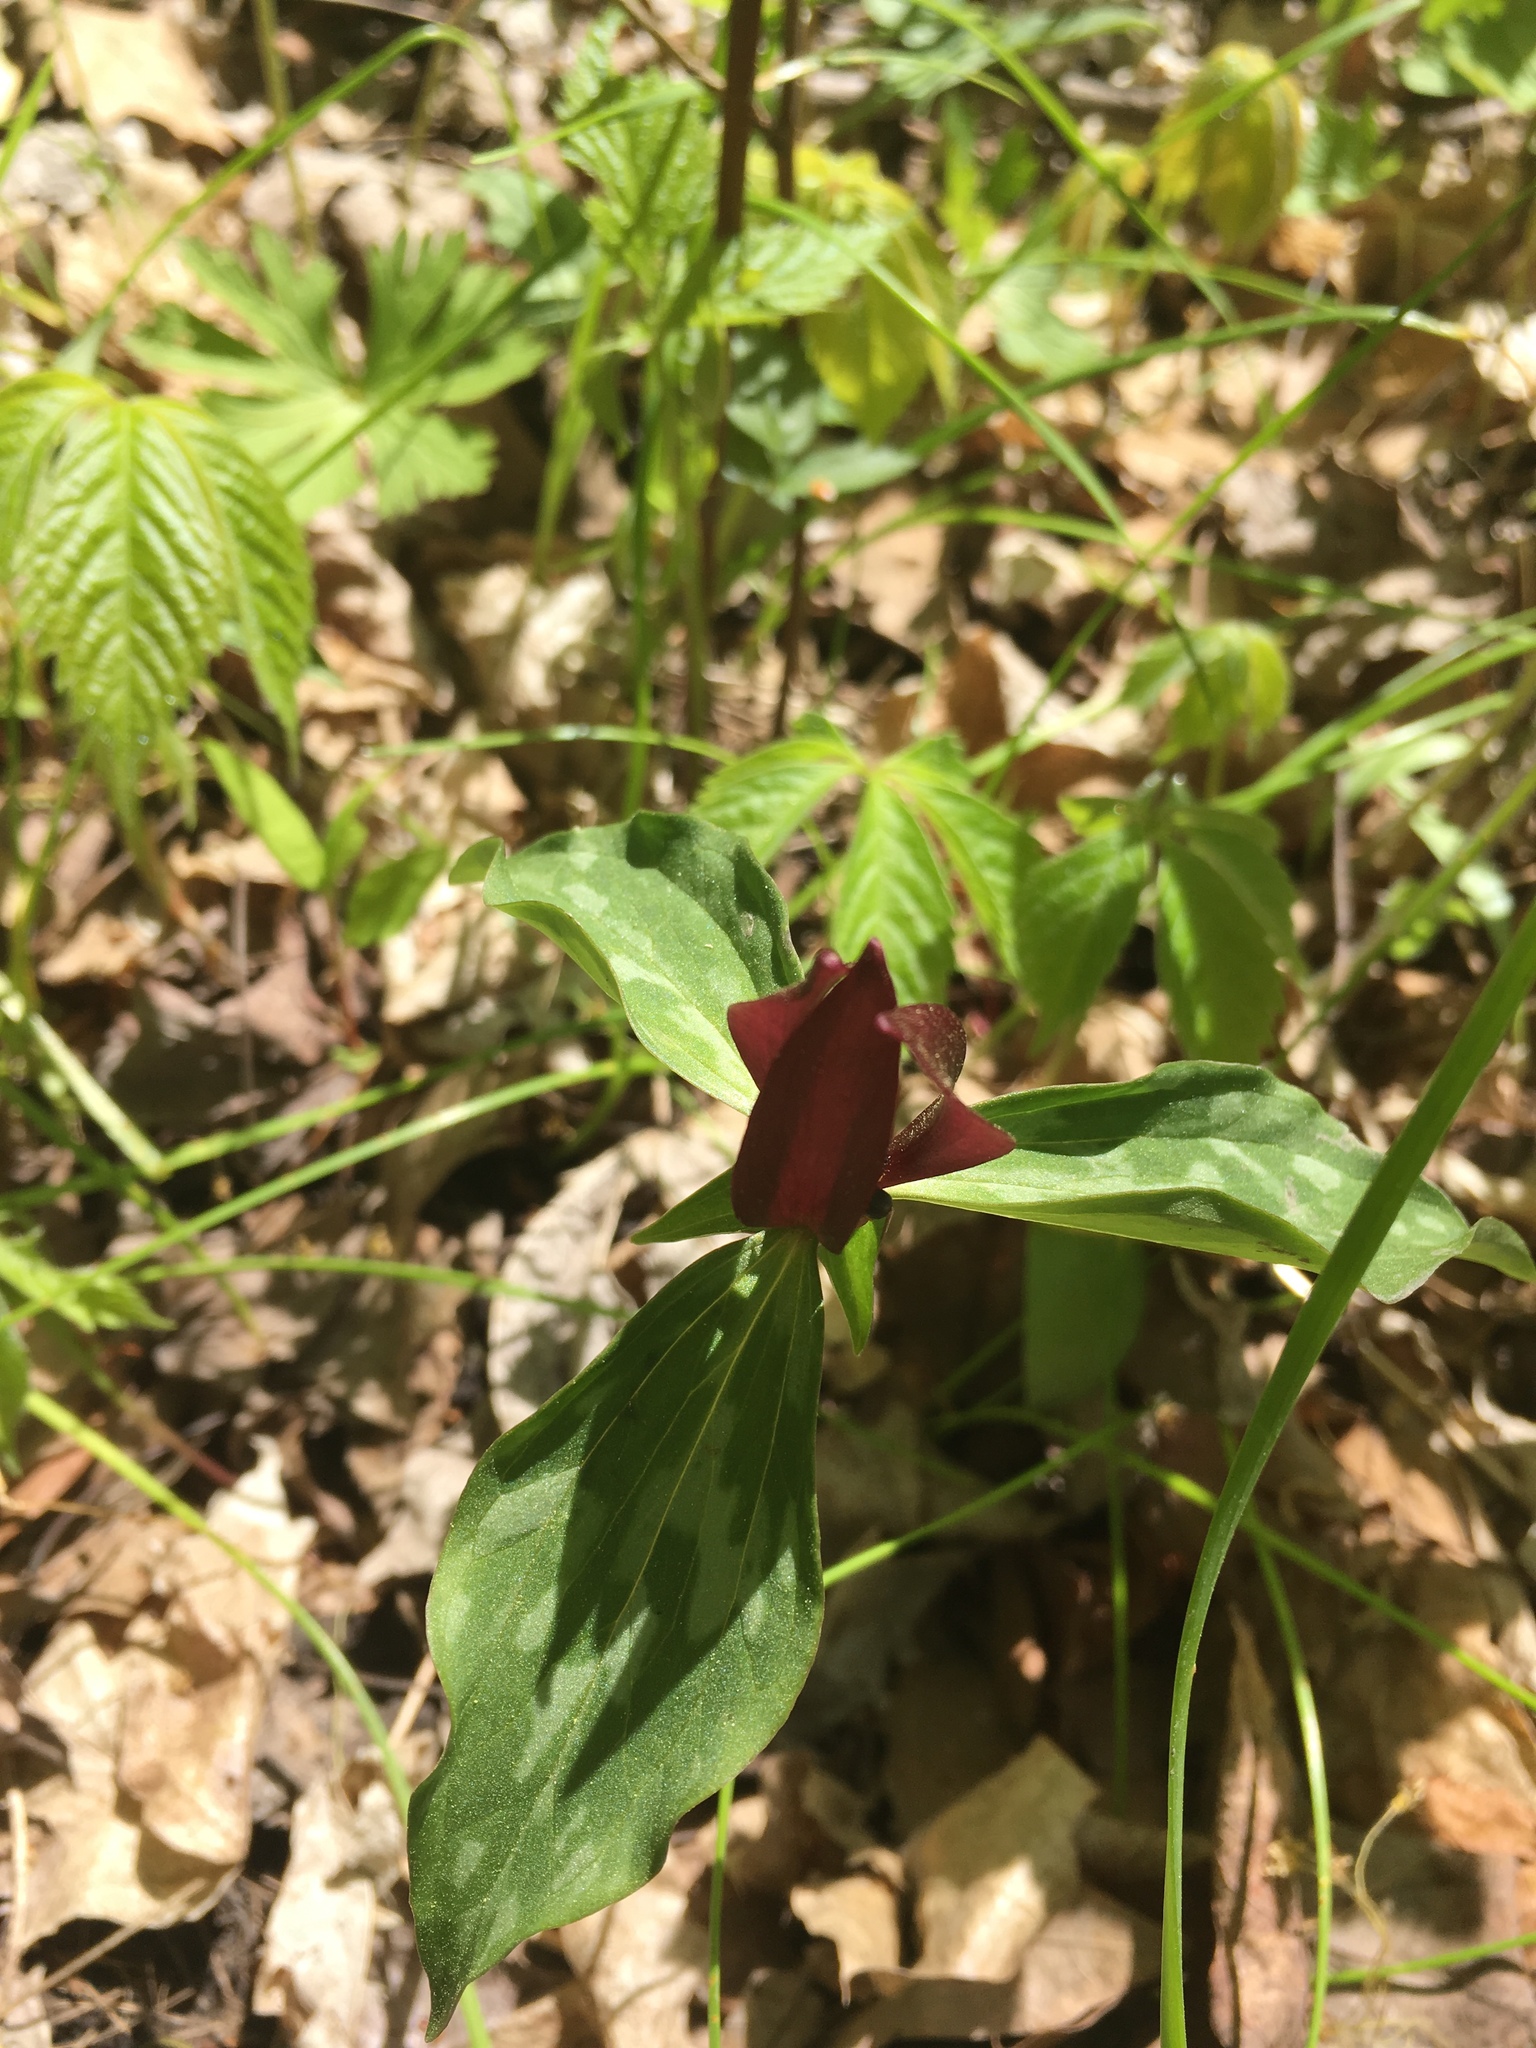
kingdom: Plantae
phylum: Tracheophyta
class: Liliopsida
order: Liliales
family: Melanthiaceae
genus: Trillium
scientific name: Trillium recurvatum
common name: Bloody butcher
